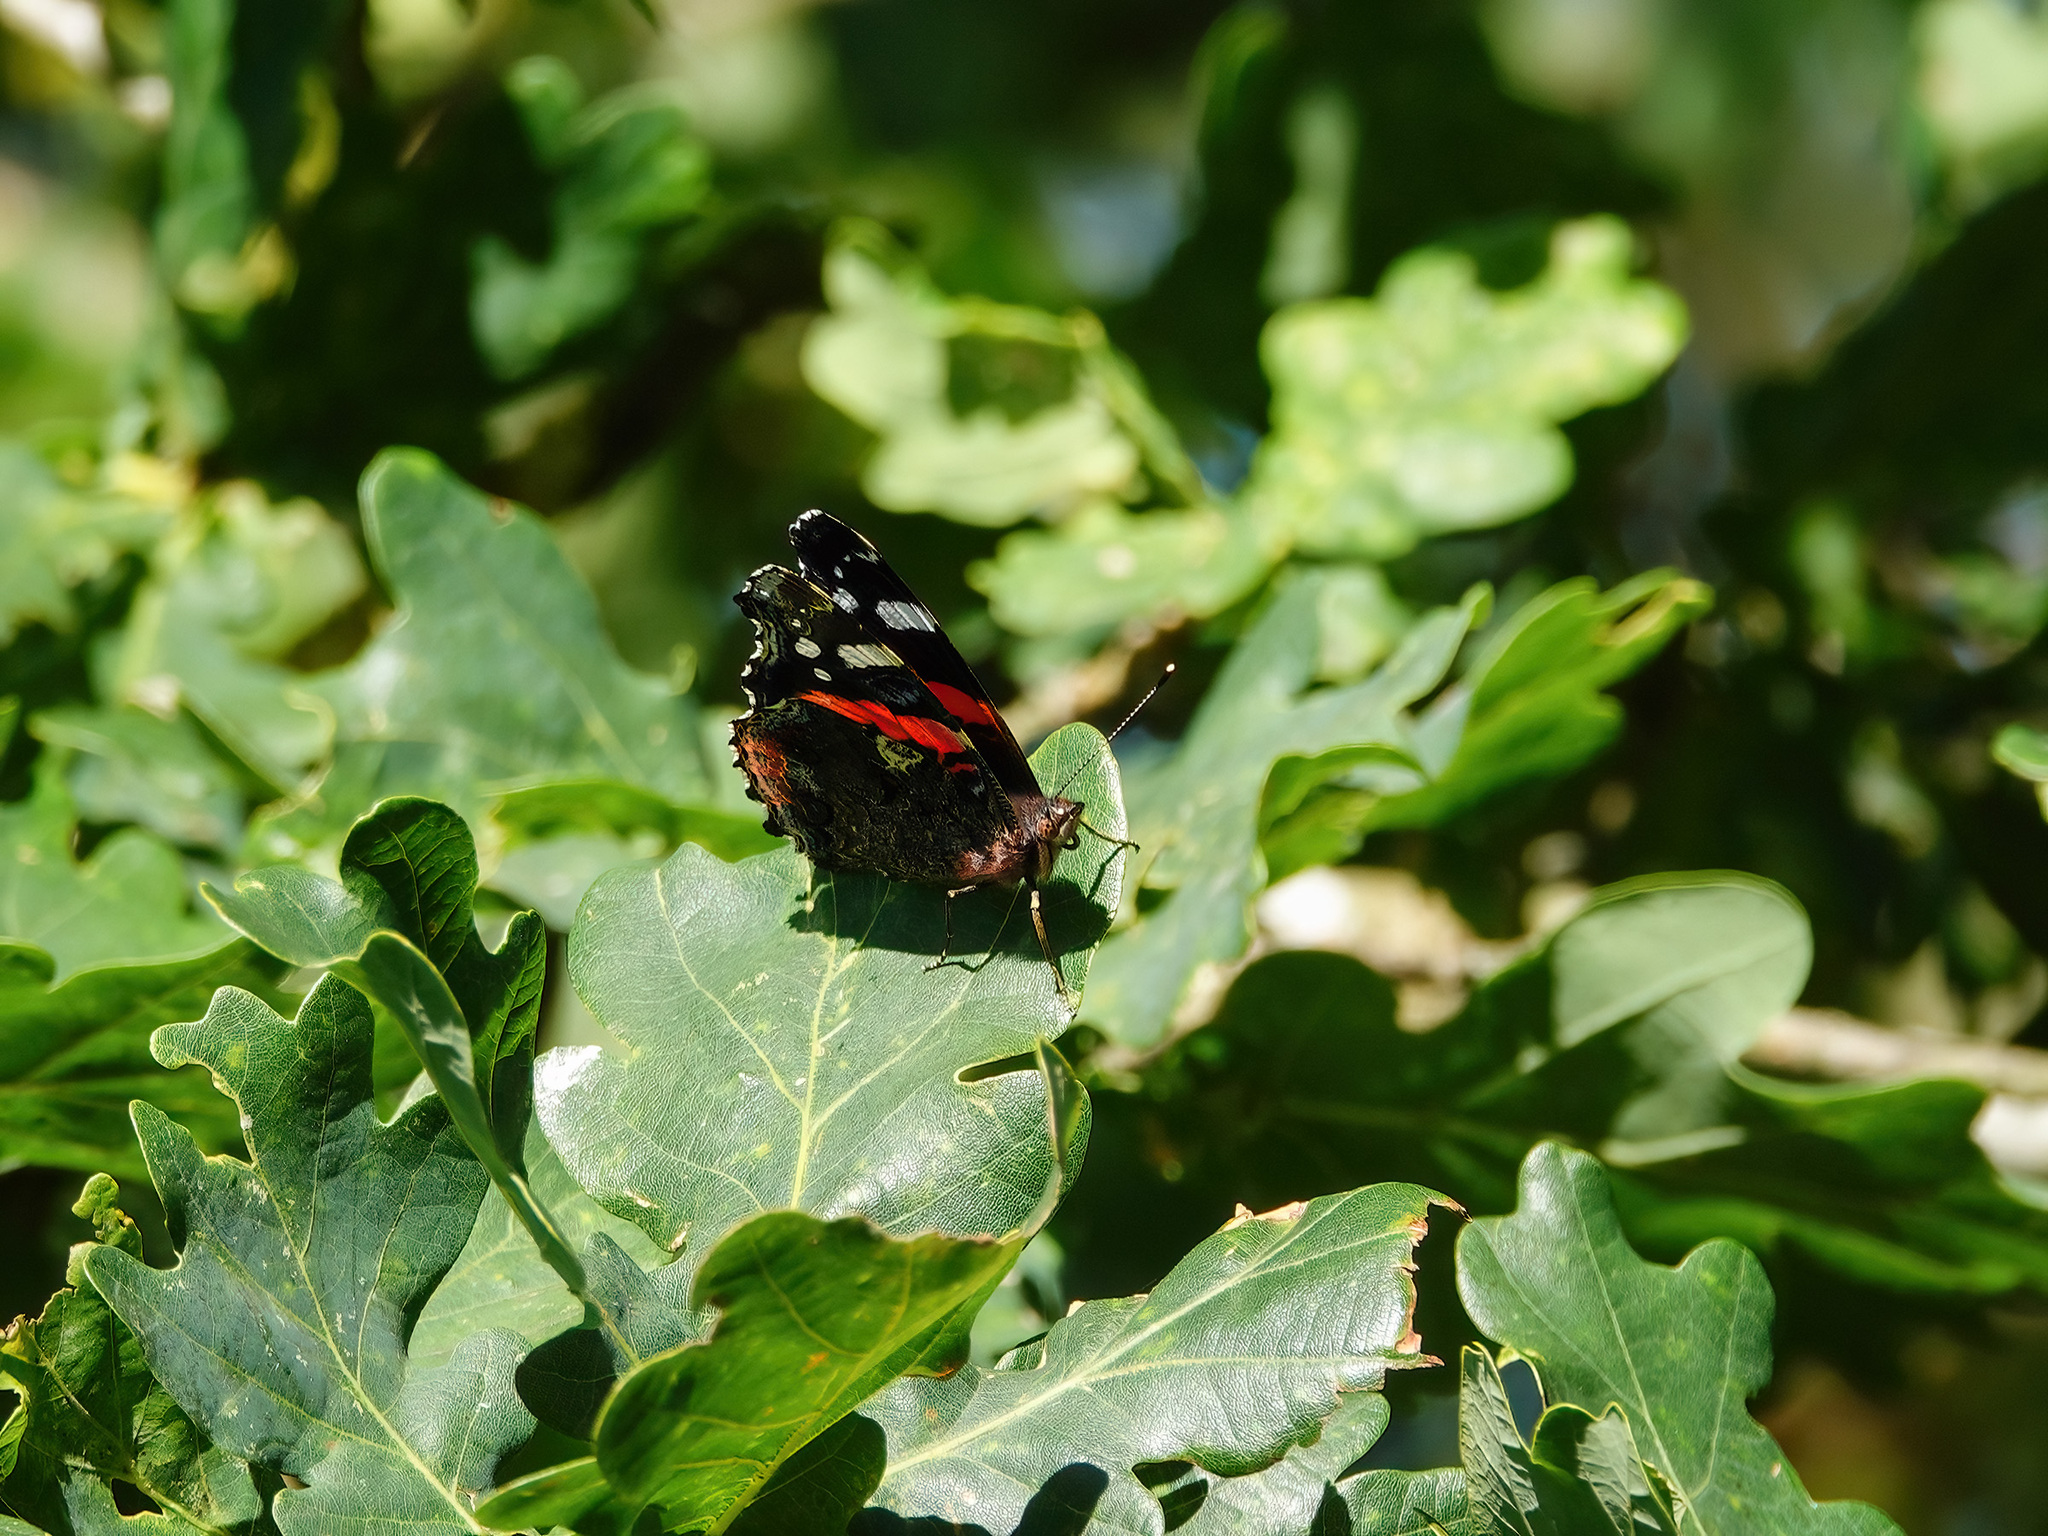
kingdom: Animalia
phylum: Arthropoda
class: Insecta
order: Lepidoptera
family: Nymphalidae
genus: Vanessa
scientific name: Vanessa atalanta
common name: Red admiral
